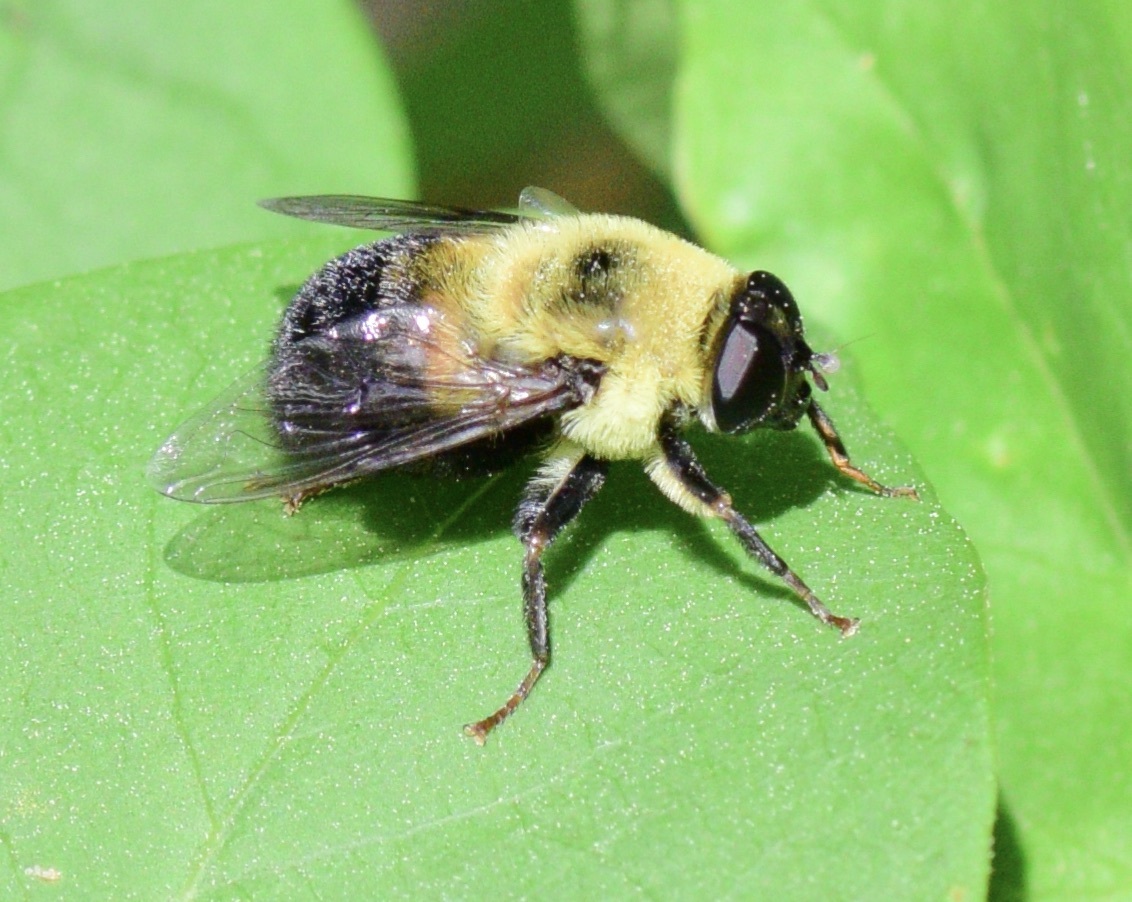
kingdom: Animalia
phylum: Arthropoda
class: Insecta
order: Diptera
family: Syrphidae
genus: Imatisma
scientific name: Imatisma posticata
